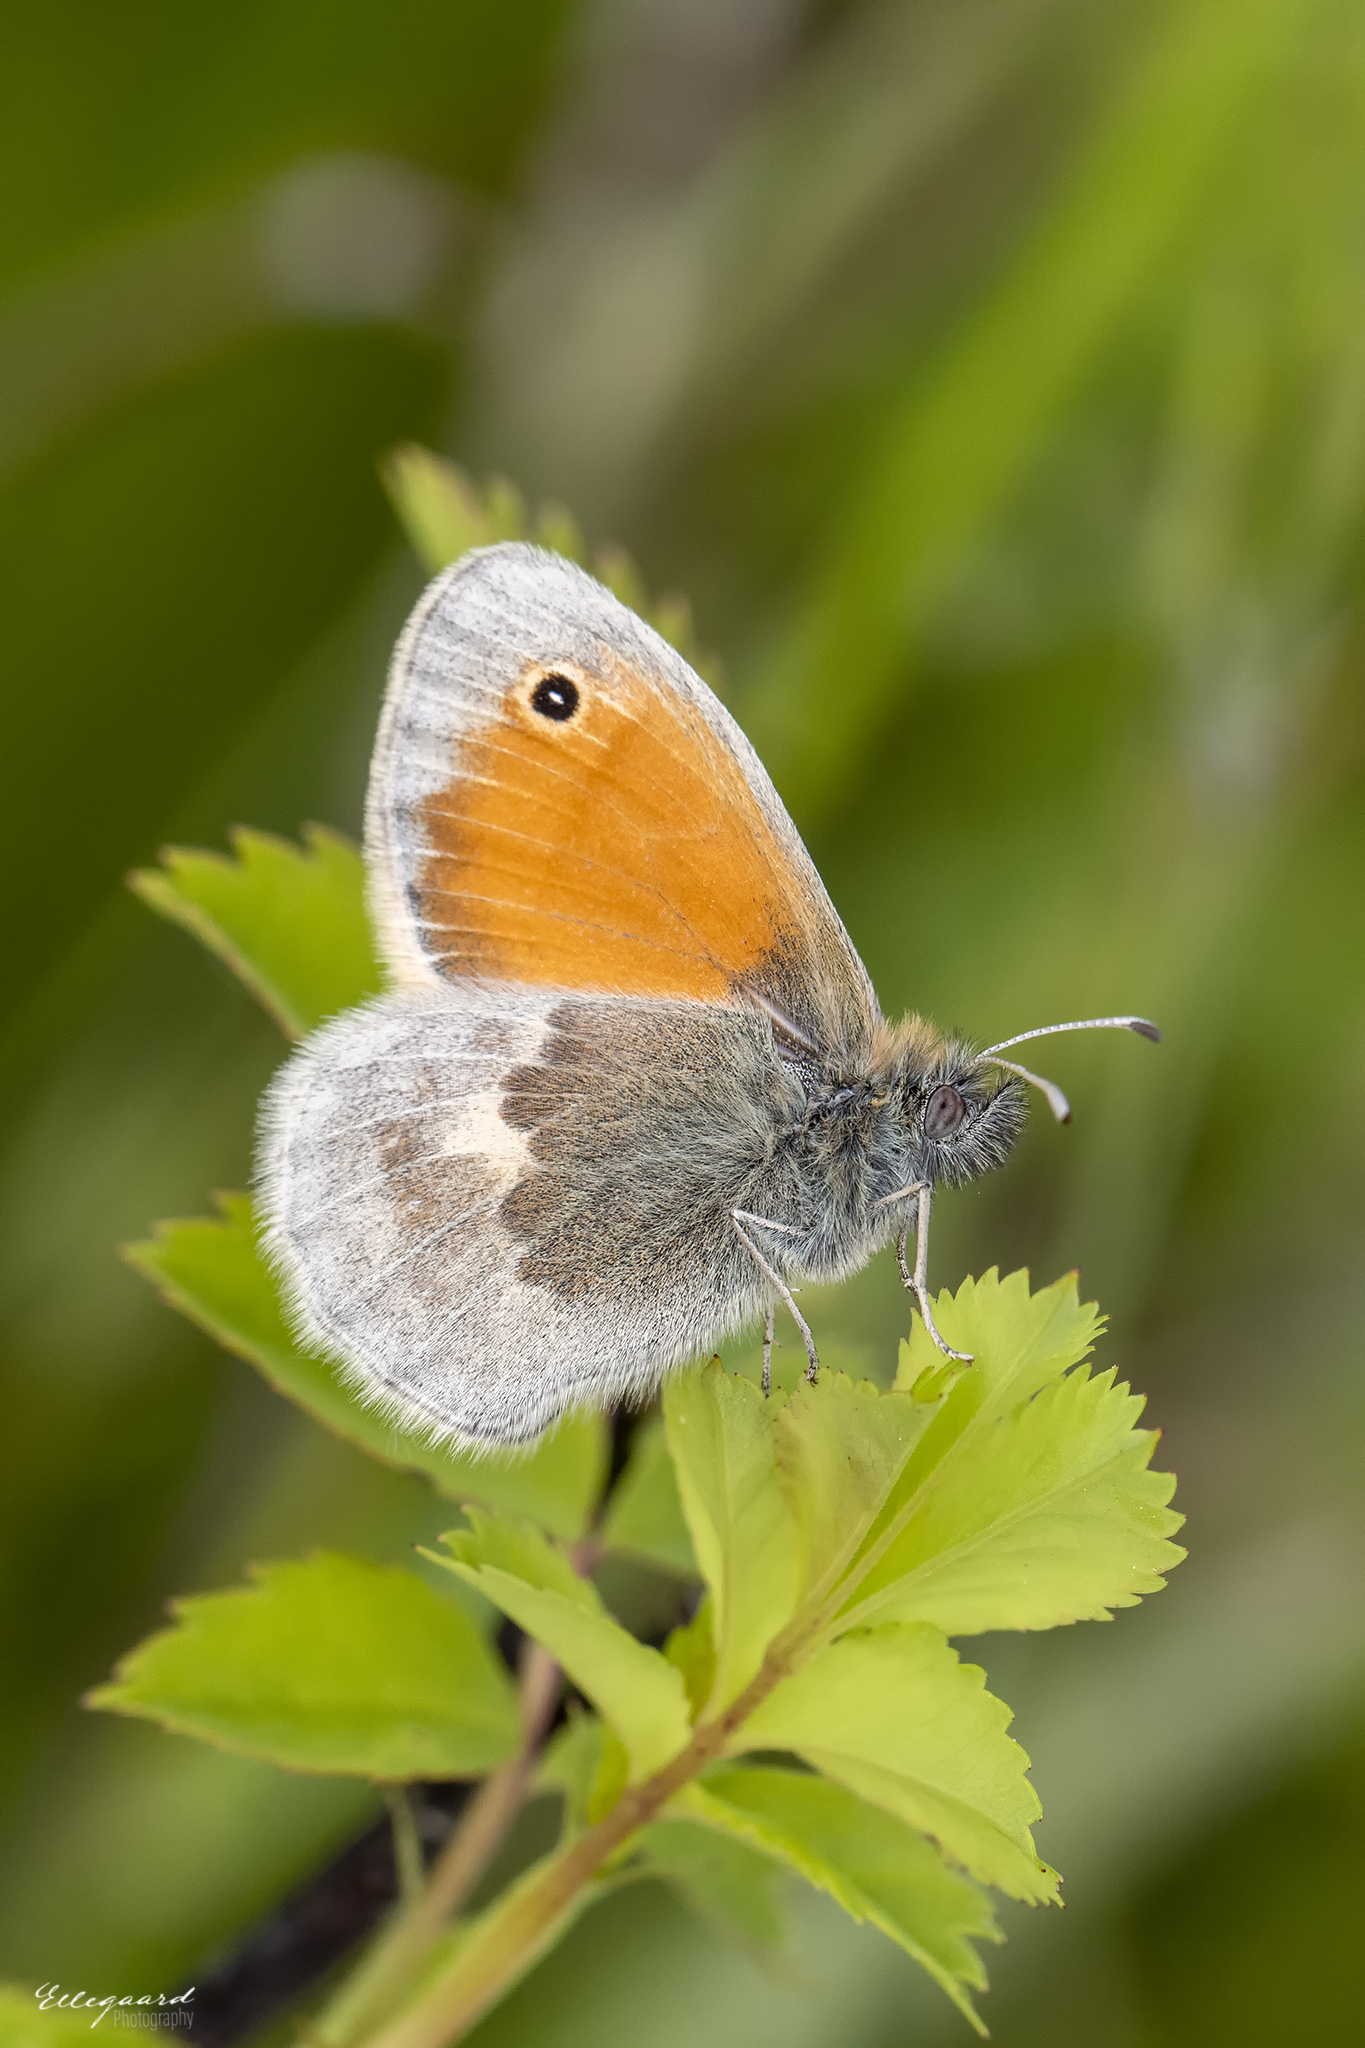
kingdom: Animalia
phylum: Arthropoda
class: Insecta
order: Lepidoptera
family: Nymphalidae
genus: Coenonympha
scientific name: Coenonympha pamphilus
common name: Small heath
